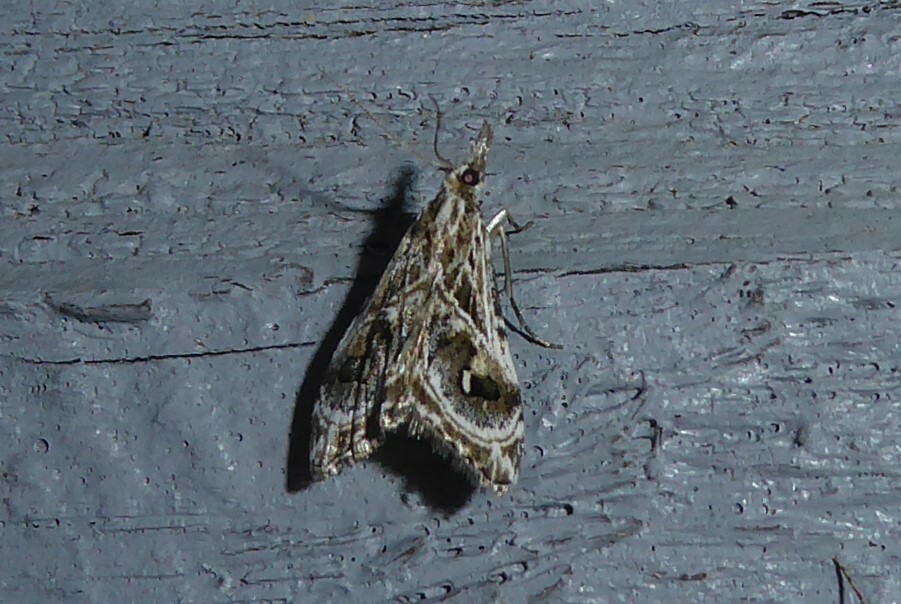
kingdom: Animalia
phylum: Arthropoda
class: Insecta
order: Lepidoptera
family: Crambidae
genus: Gadira
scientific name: Gadira acerella
